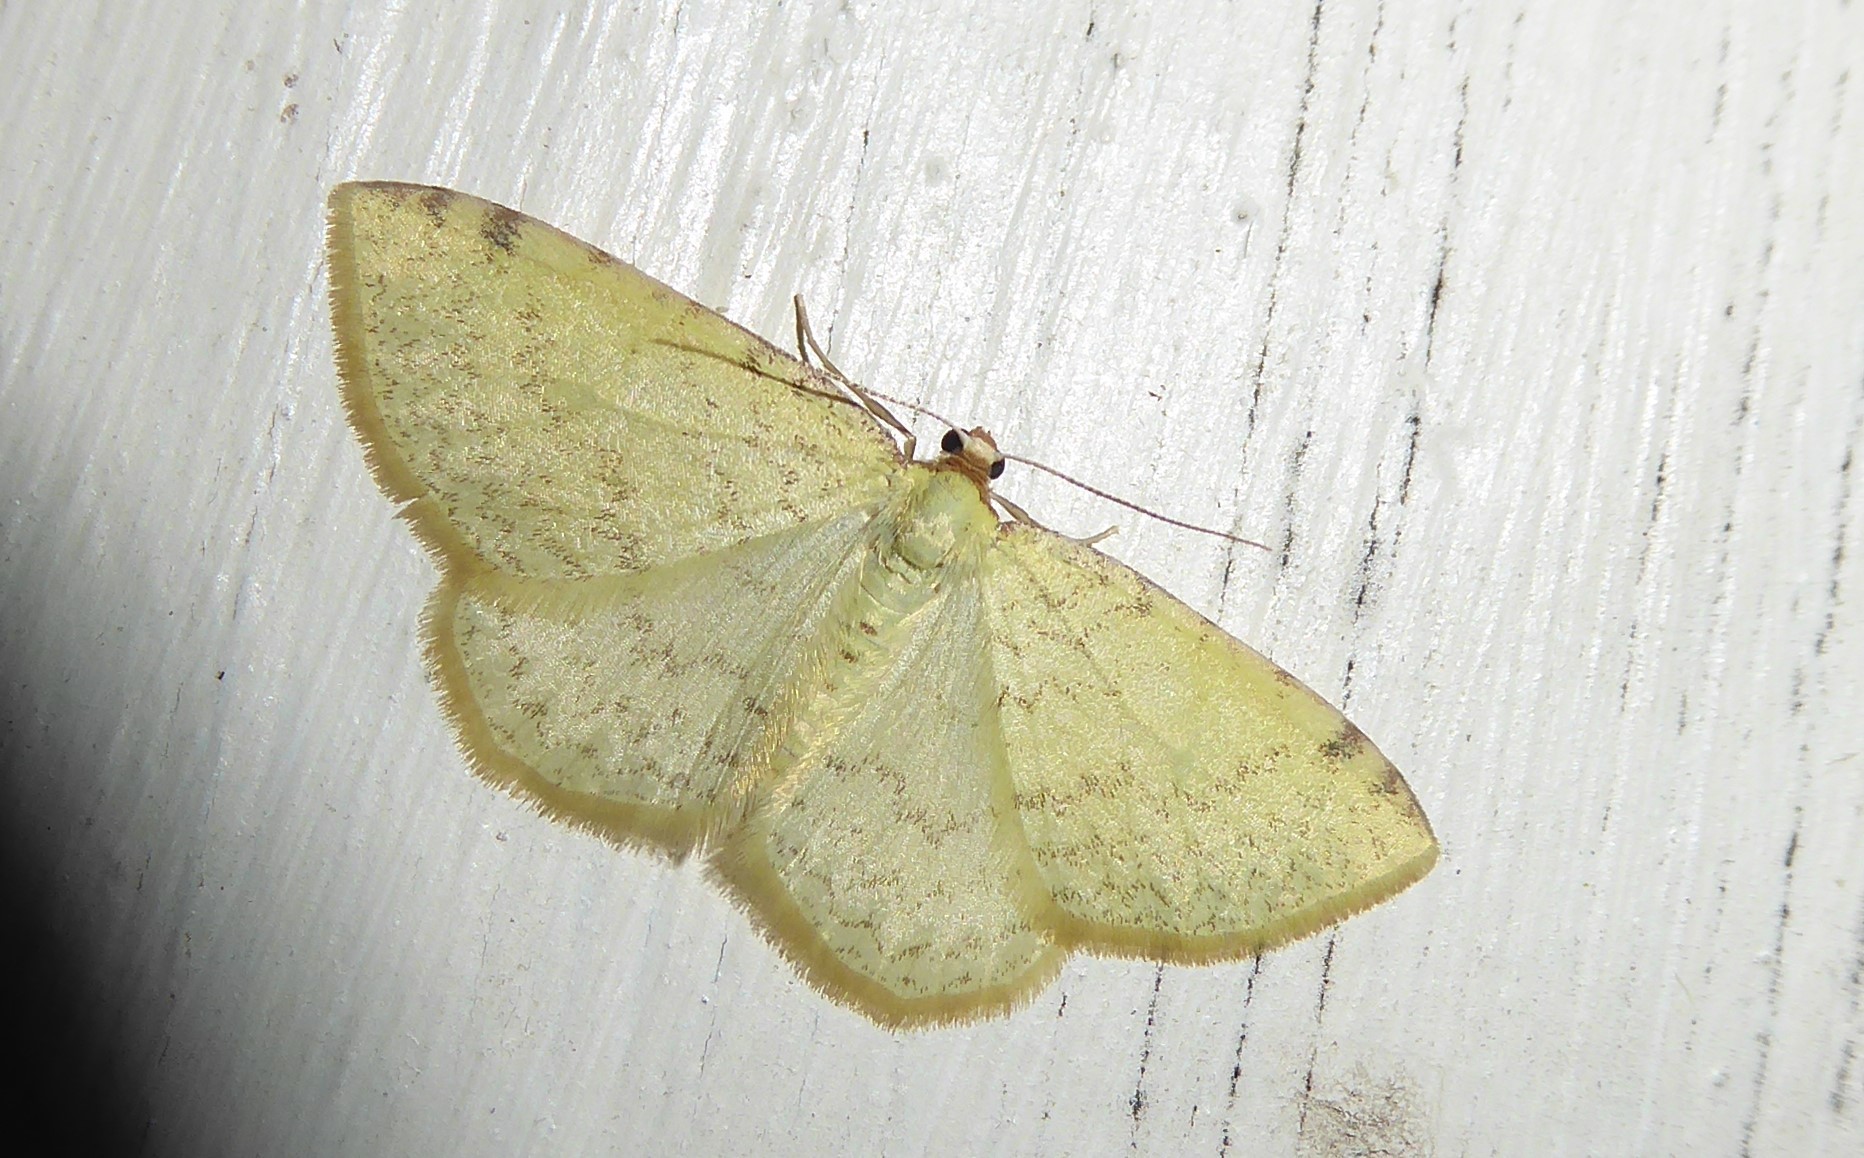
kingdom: Animalia
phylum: Arthropoda
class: Insecta
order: Lepidoptera
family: Geometridae
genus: Epiphryne
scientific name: Epiphryne undosata
